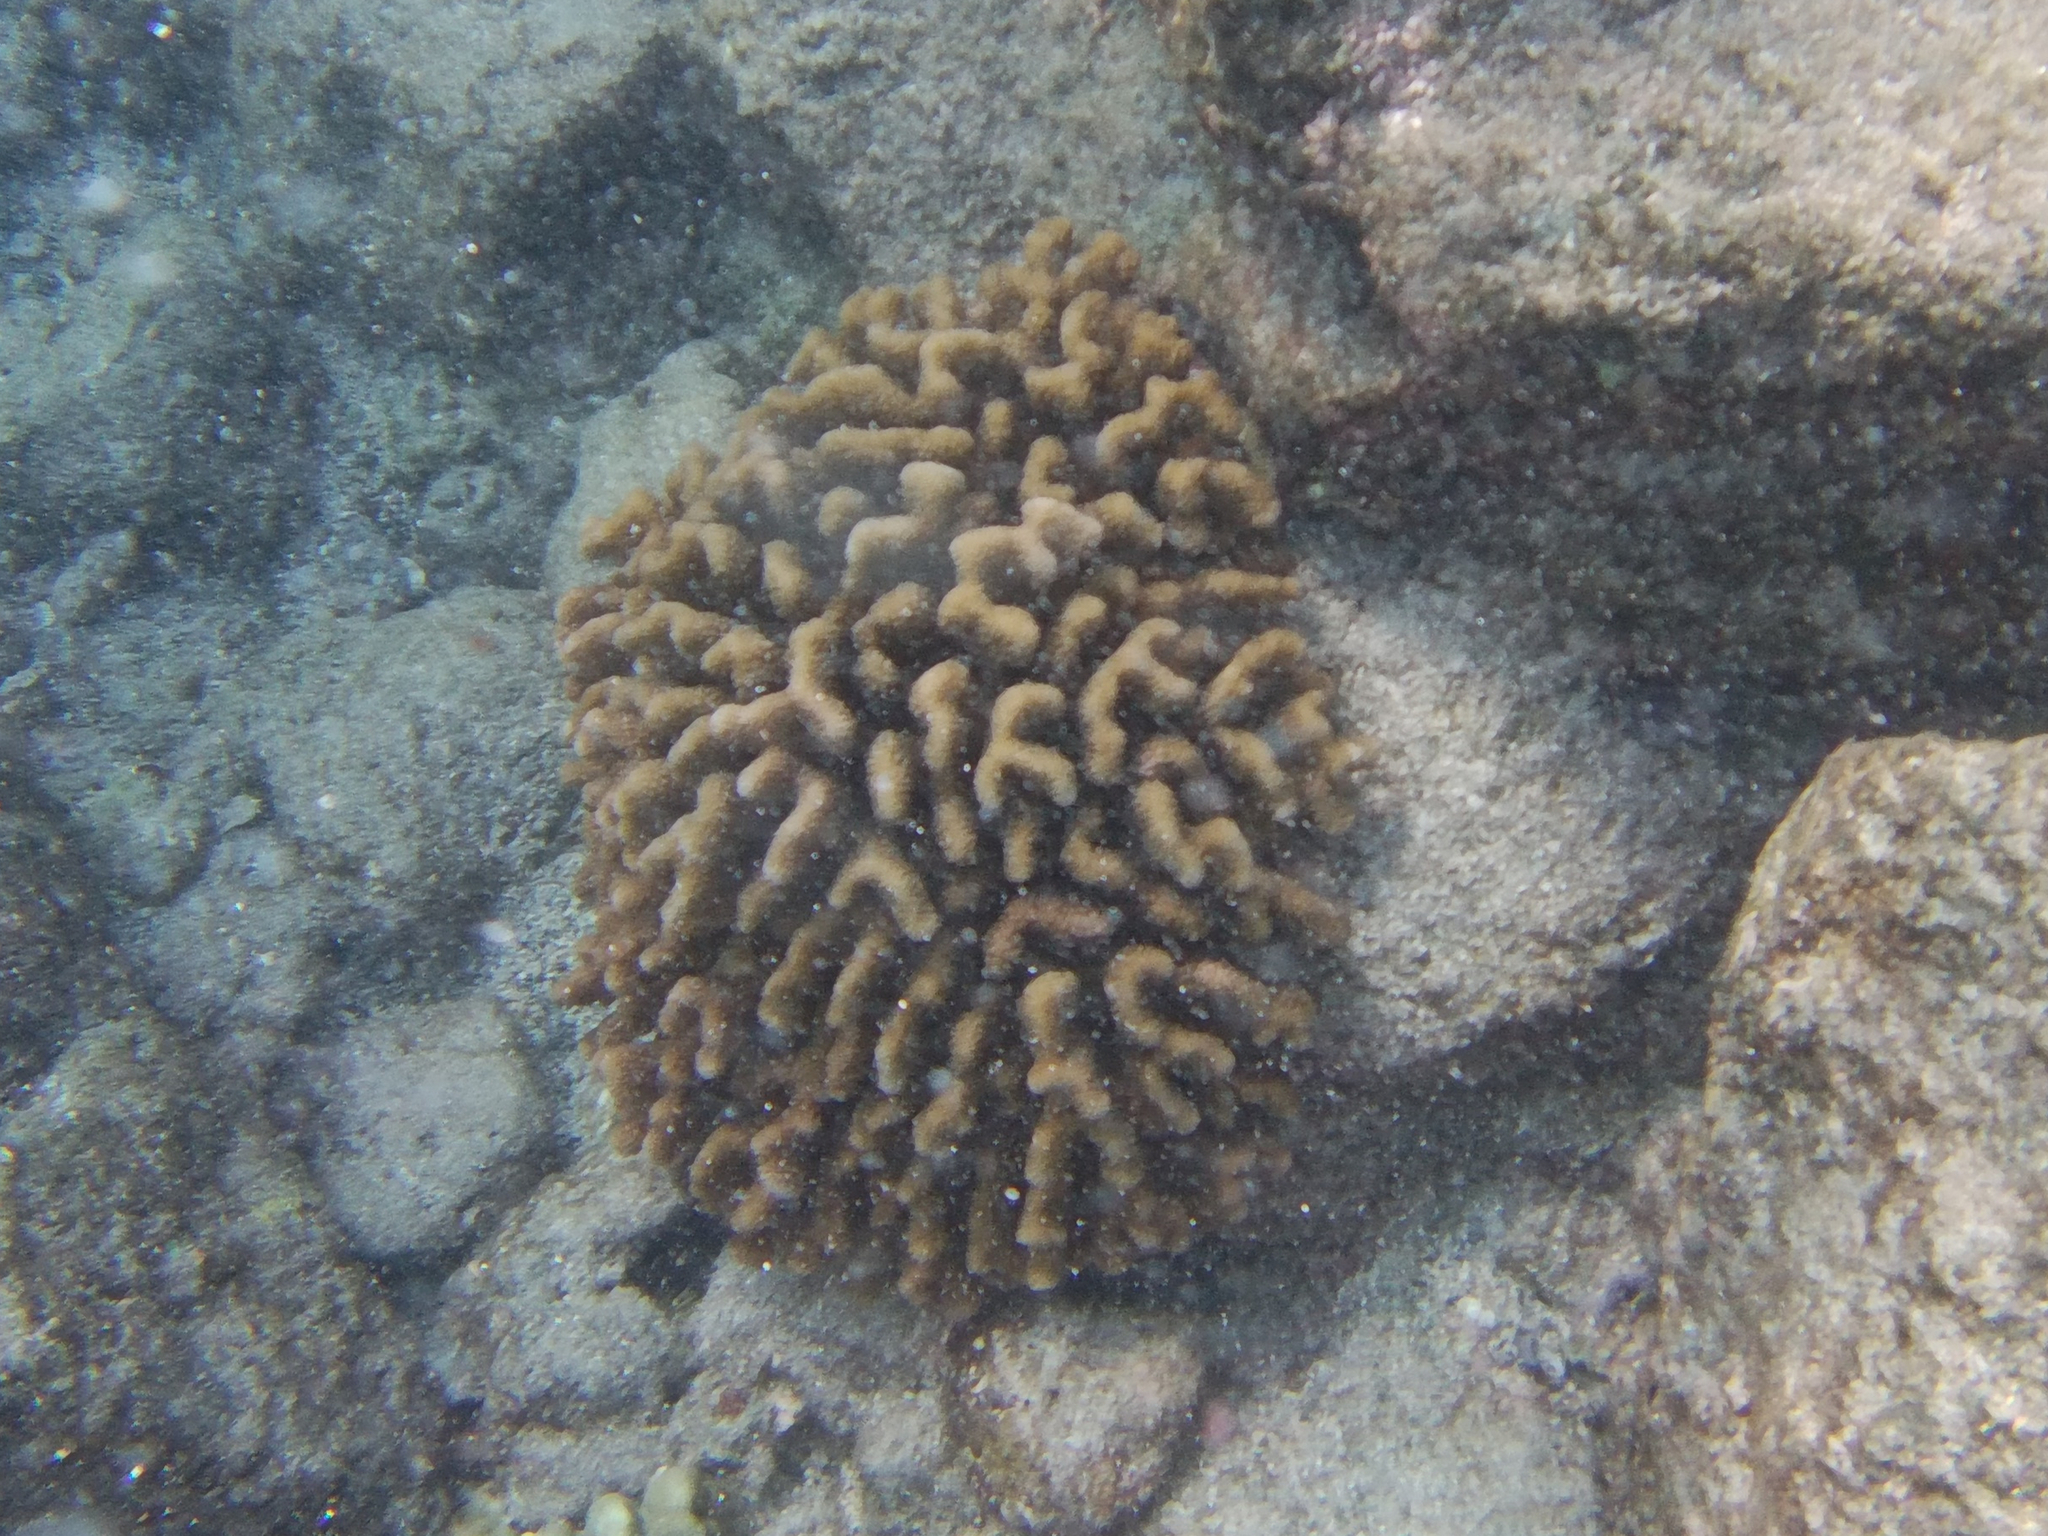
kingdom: Animalia
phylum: Cnidaria
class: Anthozoa
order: Scleractinia
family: Pocilloporidae
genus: Pocillopora
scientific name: Pocillopora meandrina
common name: Cauliflower coral
